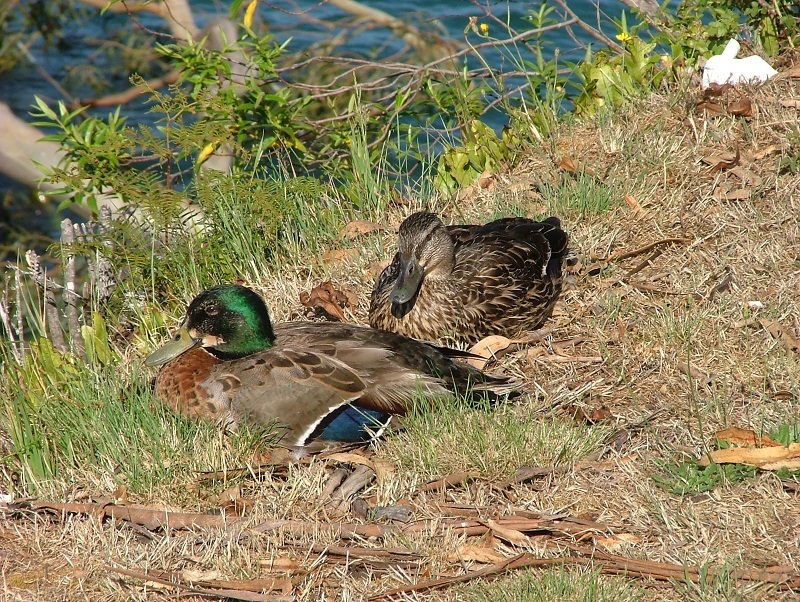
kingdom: Animalia
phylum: Chordata
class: Aves
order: Anseriformes
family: Anatidae
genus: Anas
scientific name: Anas platyrhynchos
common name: Mallard
